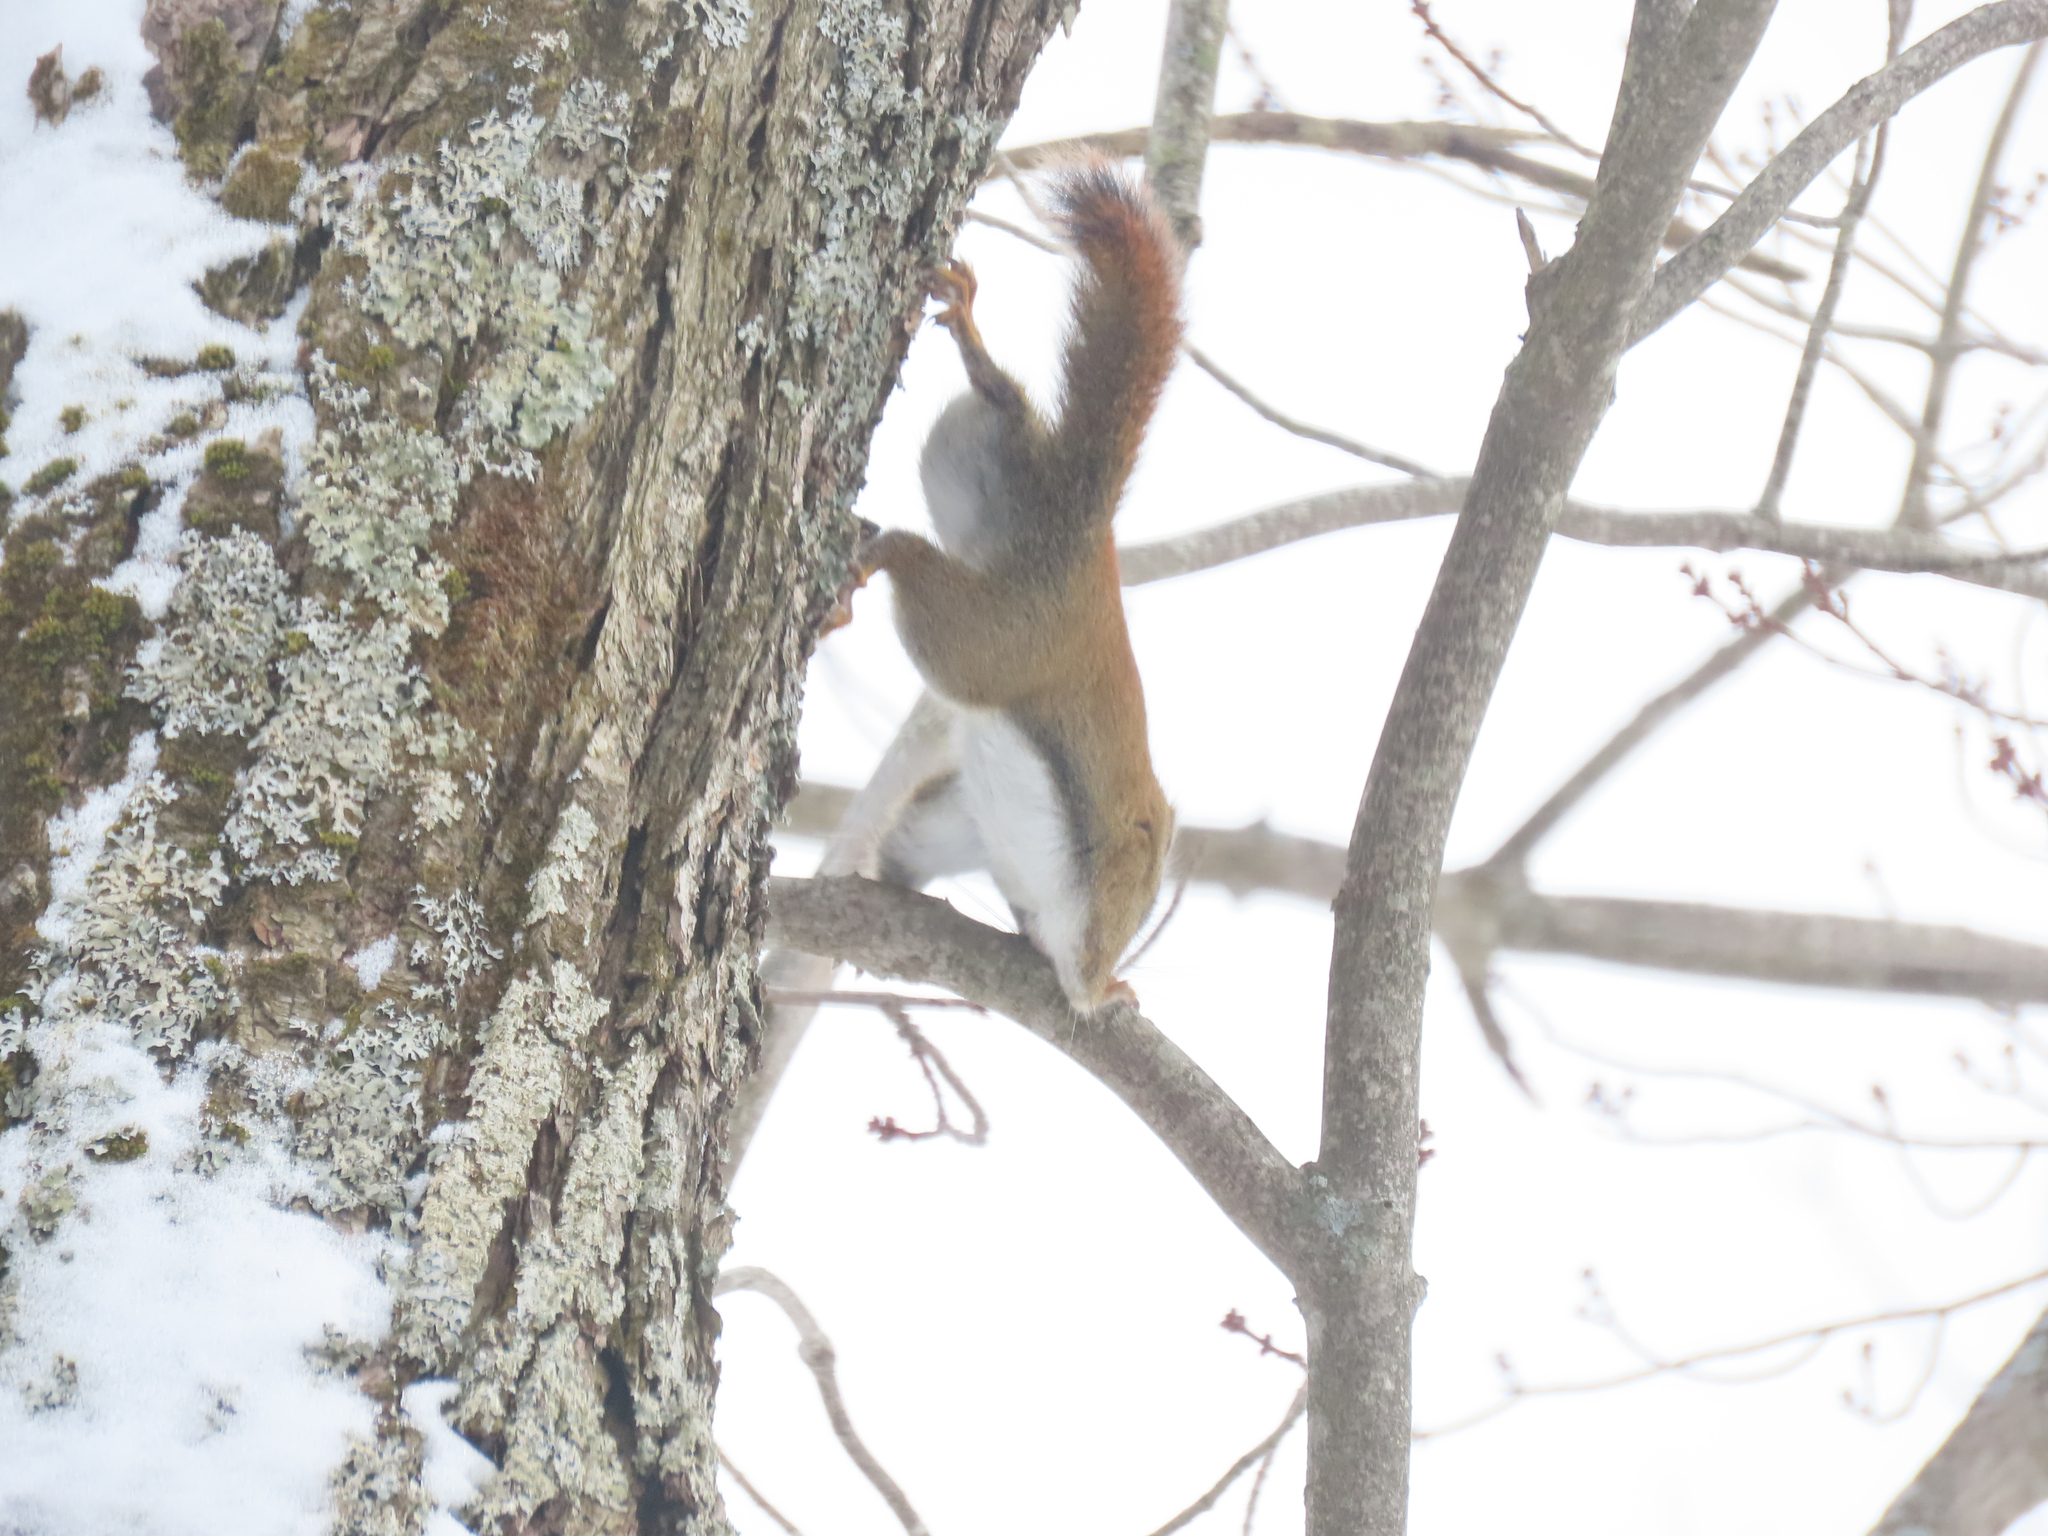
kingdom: Animalia
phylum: Chordata
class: Mammalia
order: Rodentia
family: Sciuridae
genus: Tamiasciurus
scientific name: Tamiasciurus hudsonicus
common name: Red squirrel
